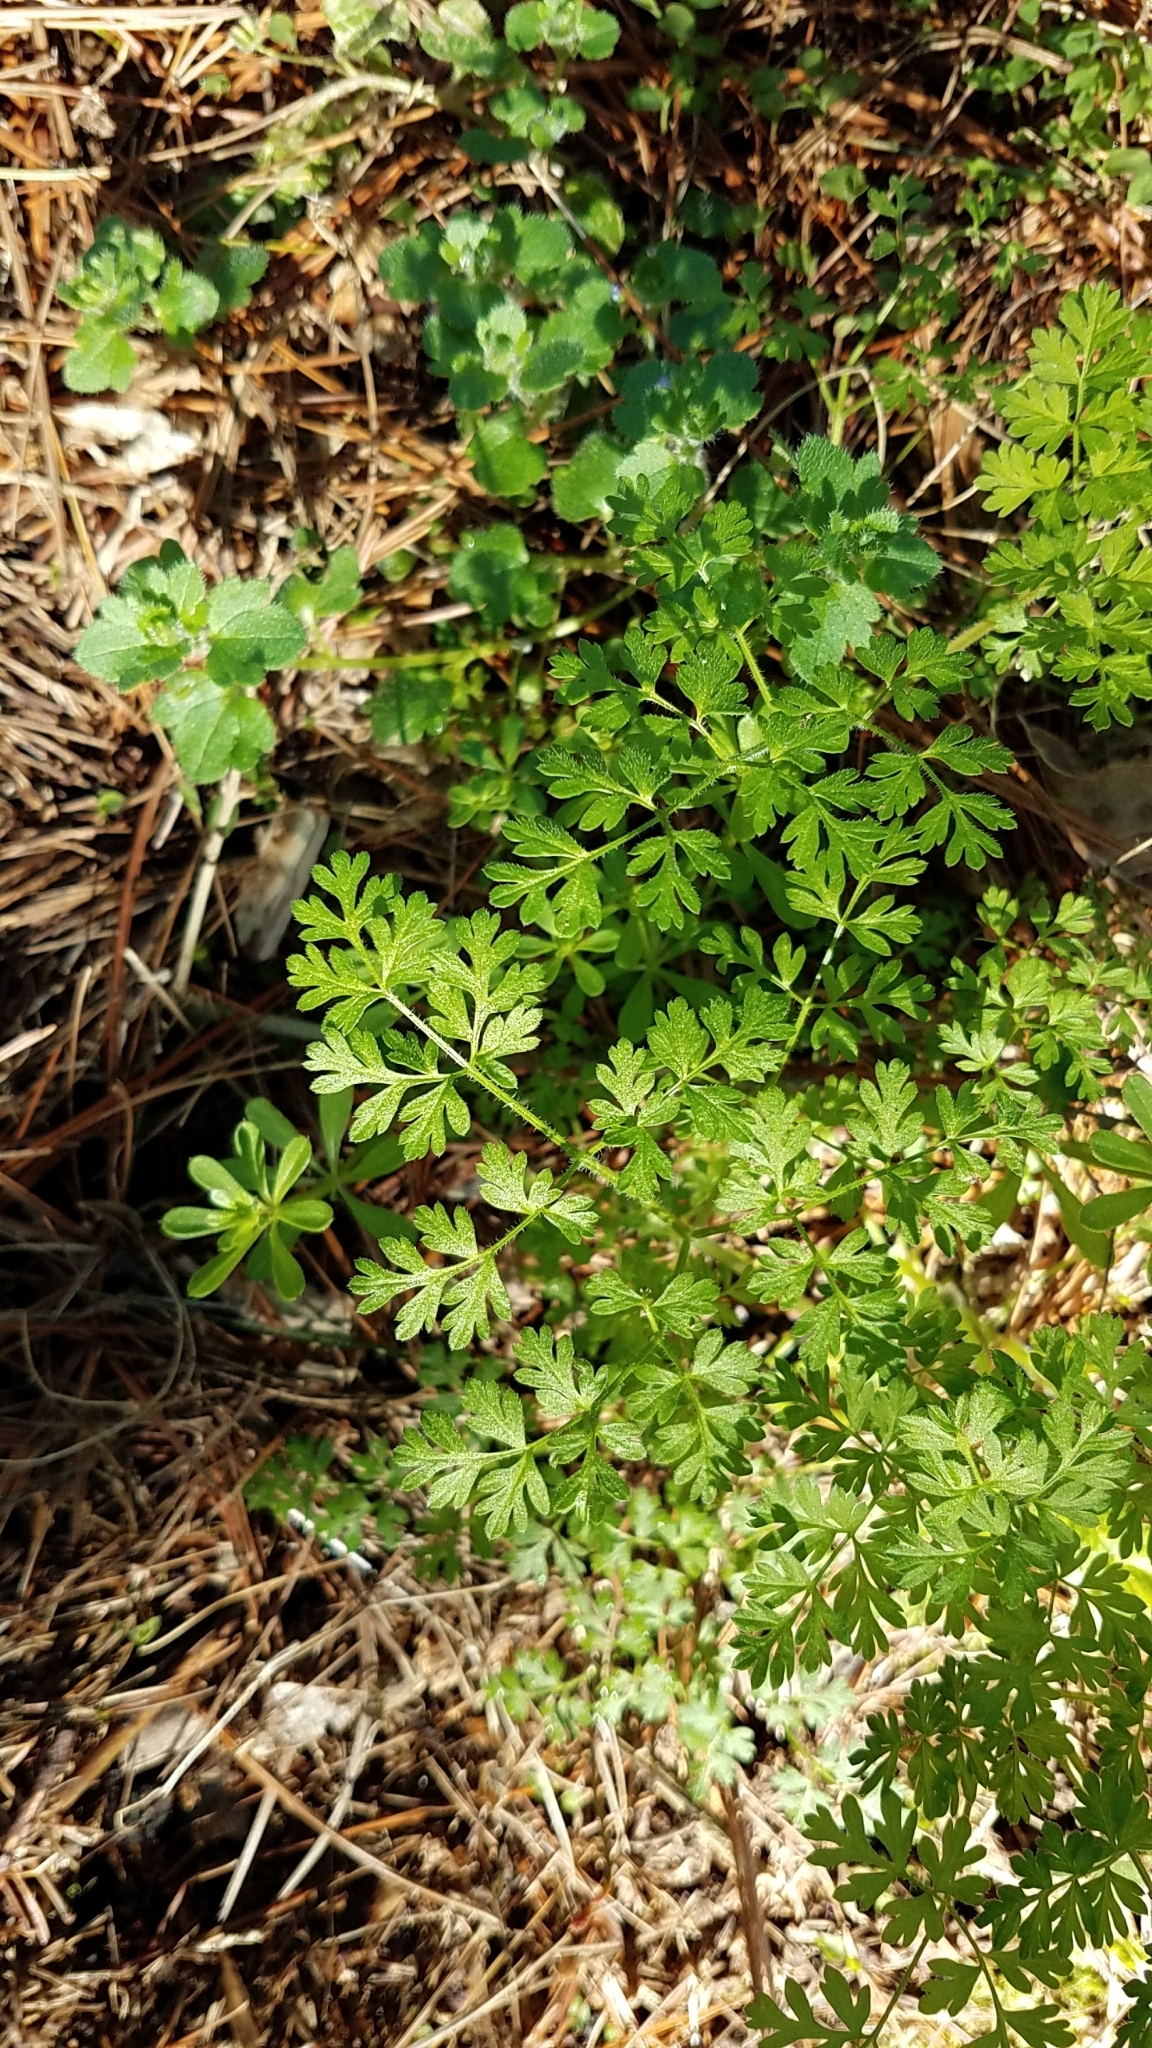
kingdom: Plantae
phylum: Tracheophyta
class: Magnoliopsida
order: Apiales
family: Apiaceae
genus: Chaerophyllum
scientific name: Chaerophyllum tainturieri
